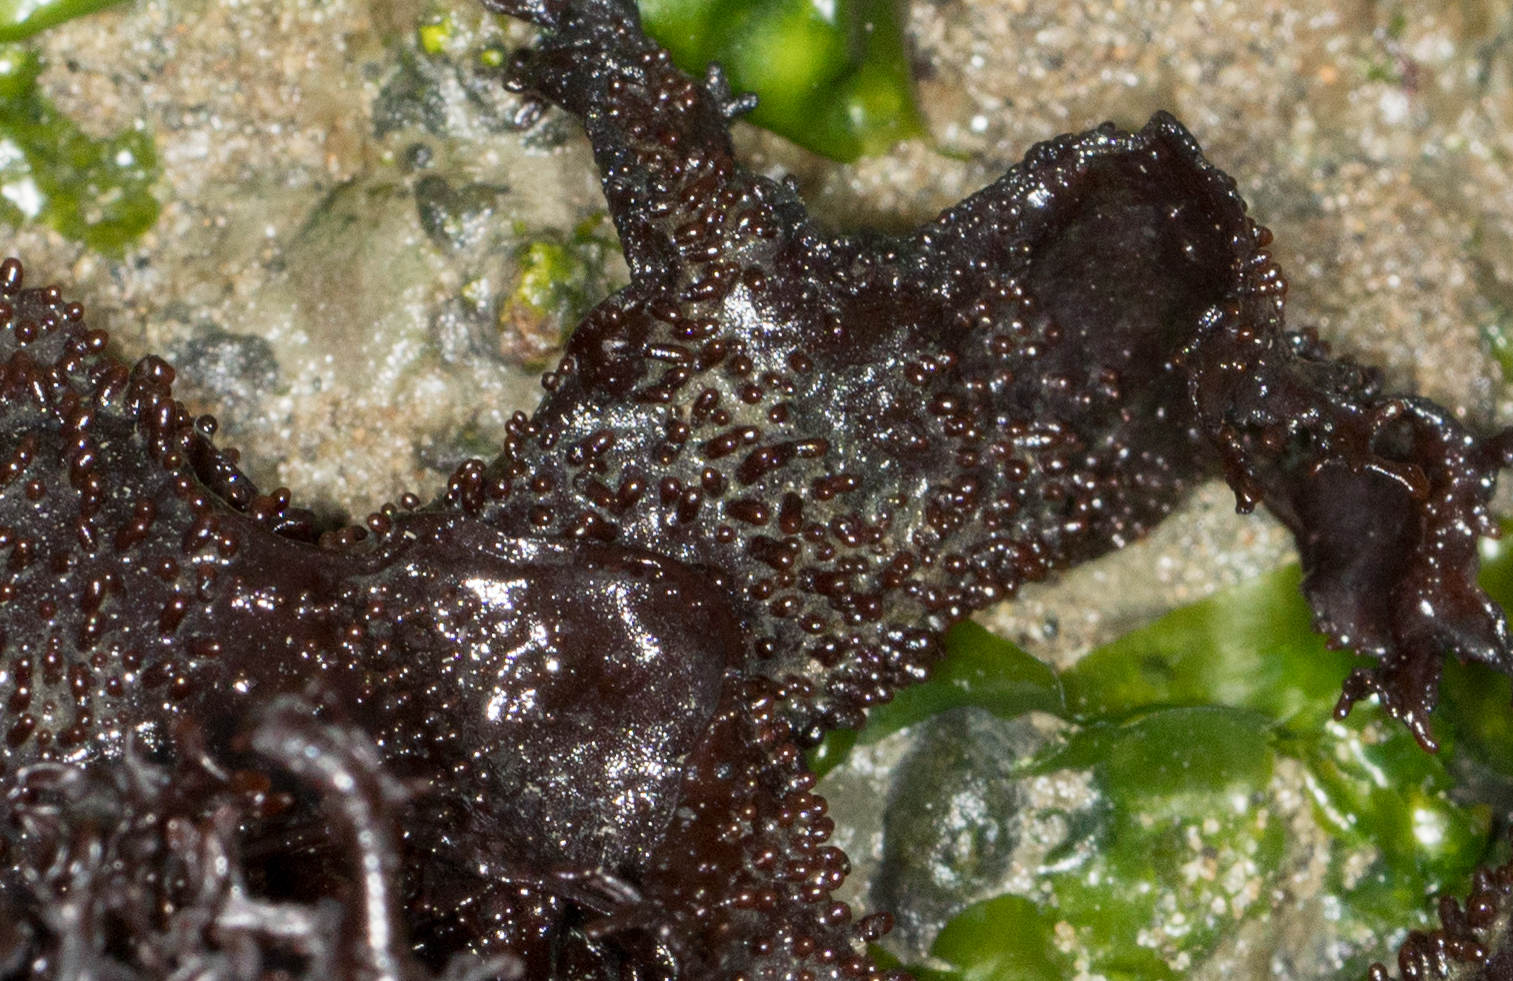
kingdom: Plantae
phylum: Rhodophyta
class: Florideophyceae
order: Gigartinales
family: Phyllophoraceae
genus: Mastocarpus
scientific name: Mastocarpus papillatus
